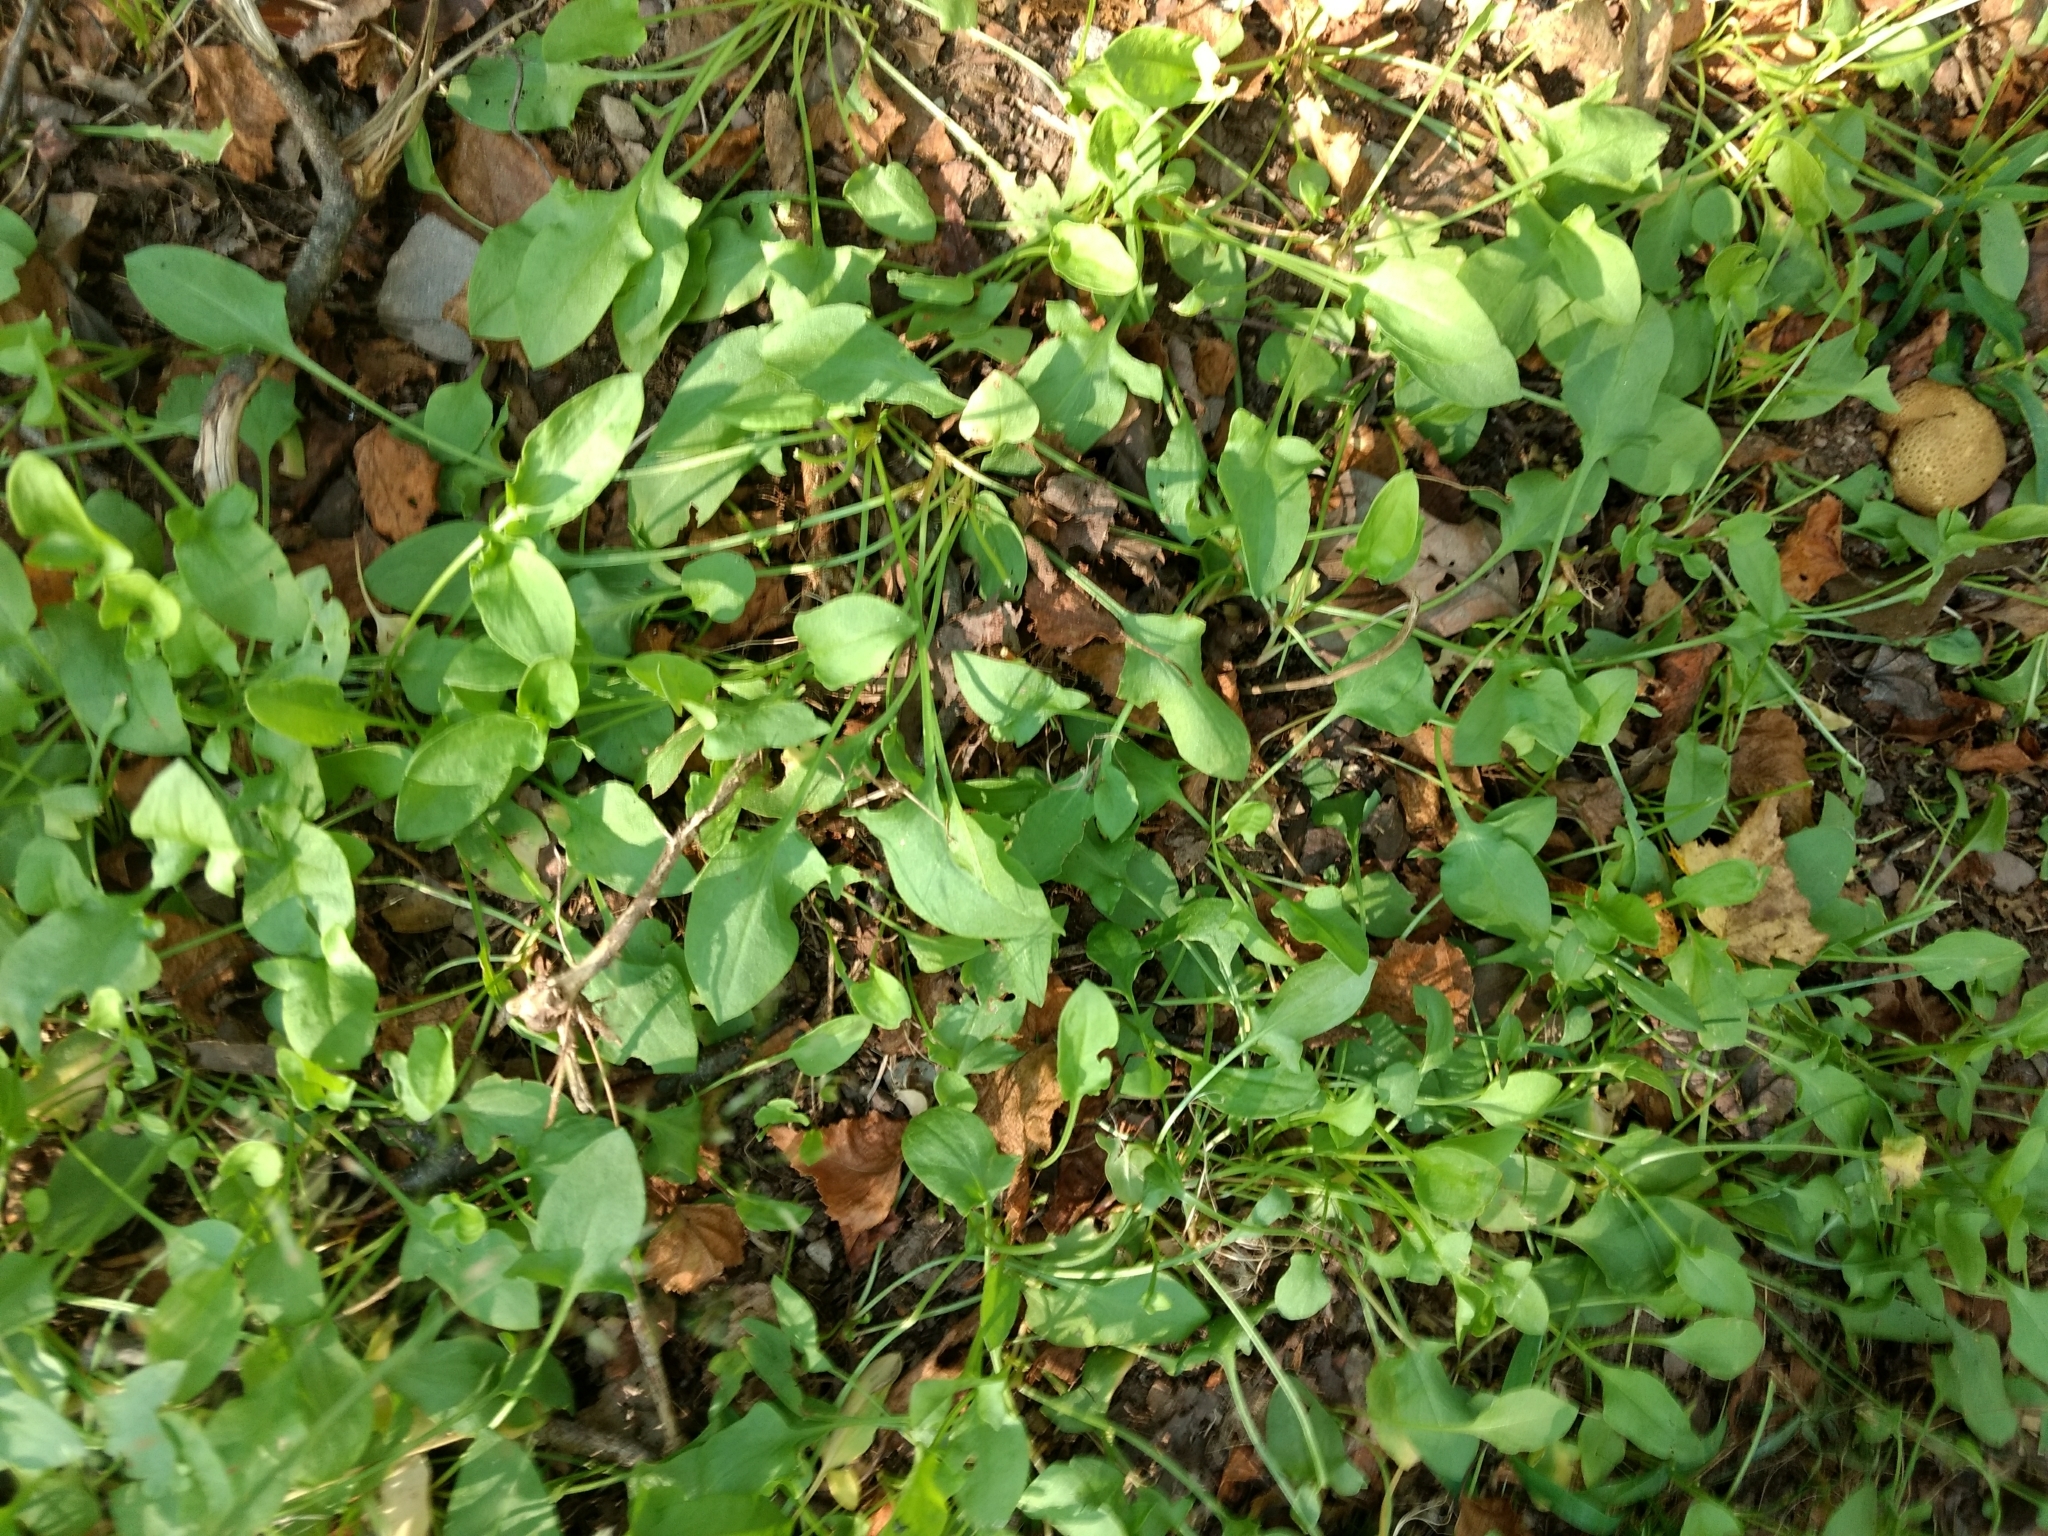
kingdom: Plantae
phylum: Tracheophyta
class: Magnoliopsida
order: Caryophyllales
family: Polygonaceae
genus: Rumex
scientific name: Rumex acetosella
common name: Common sheep sorrel
